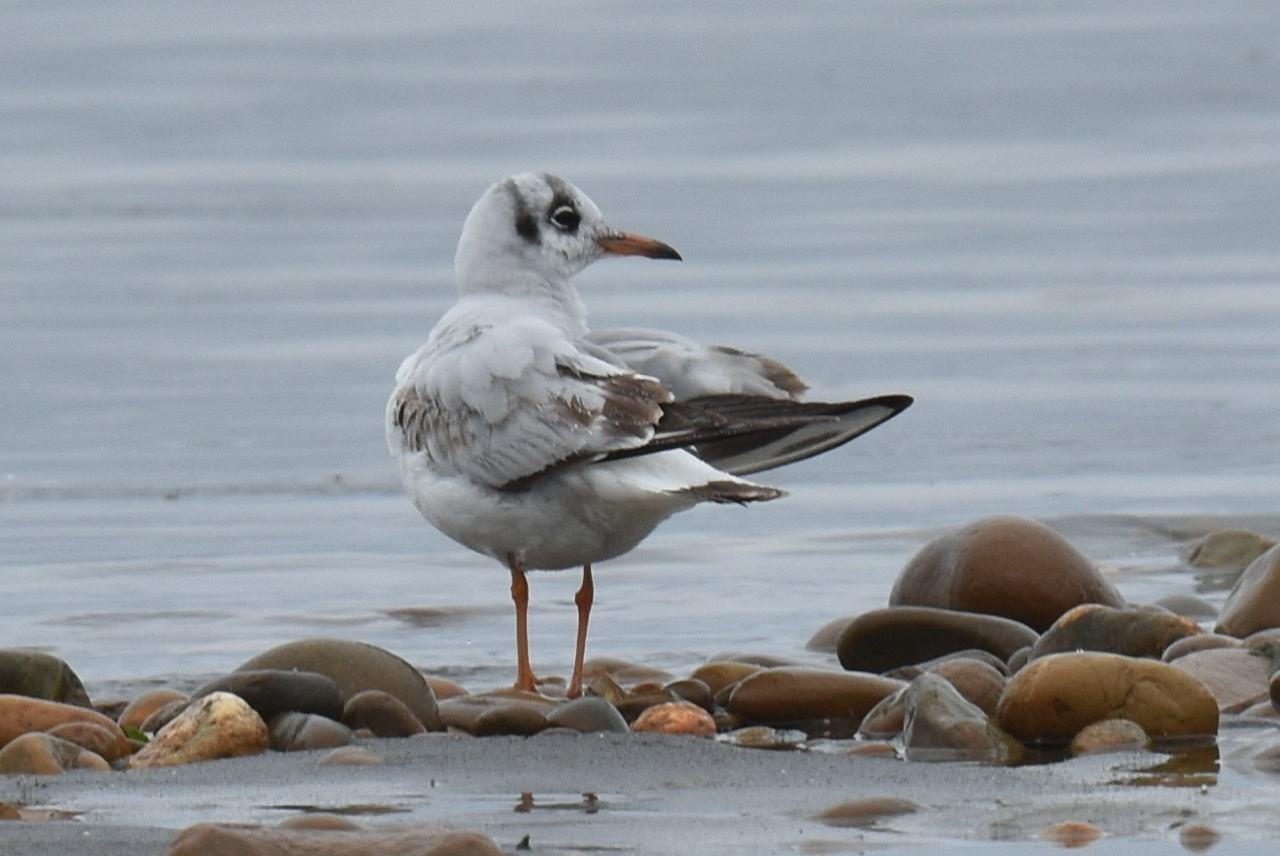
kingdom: Animalia
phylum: Chordata
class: Aves
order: Charadriiformes
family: Laridae
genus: Chroicocephalus
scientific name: Chroicocephalus ridibundus
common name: Black-headed gull
